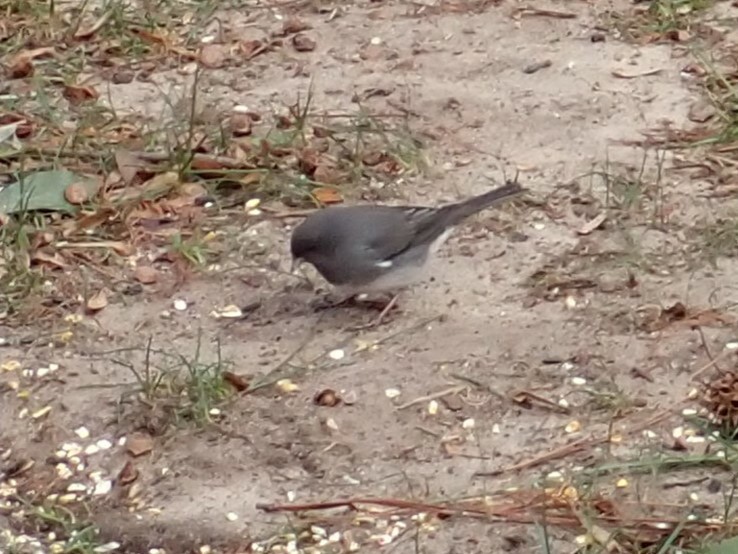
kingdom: Animalia
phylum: Chordata
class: Aves
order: Passeriformes
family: Passerellidae
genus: Junco
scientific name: Junco hyemalis
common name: Dark-eyed junco
